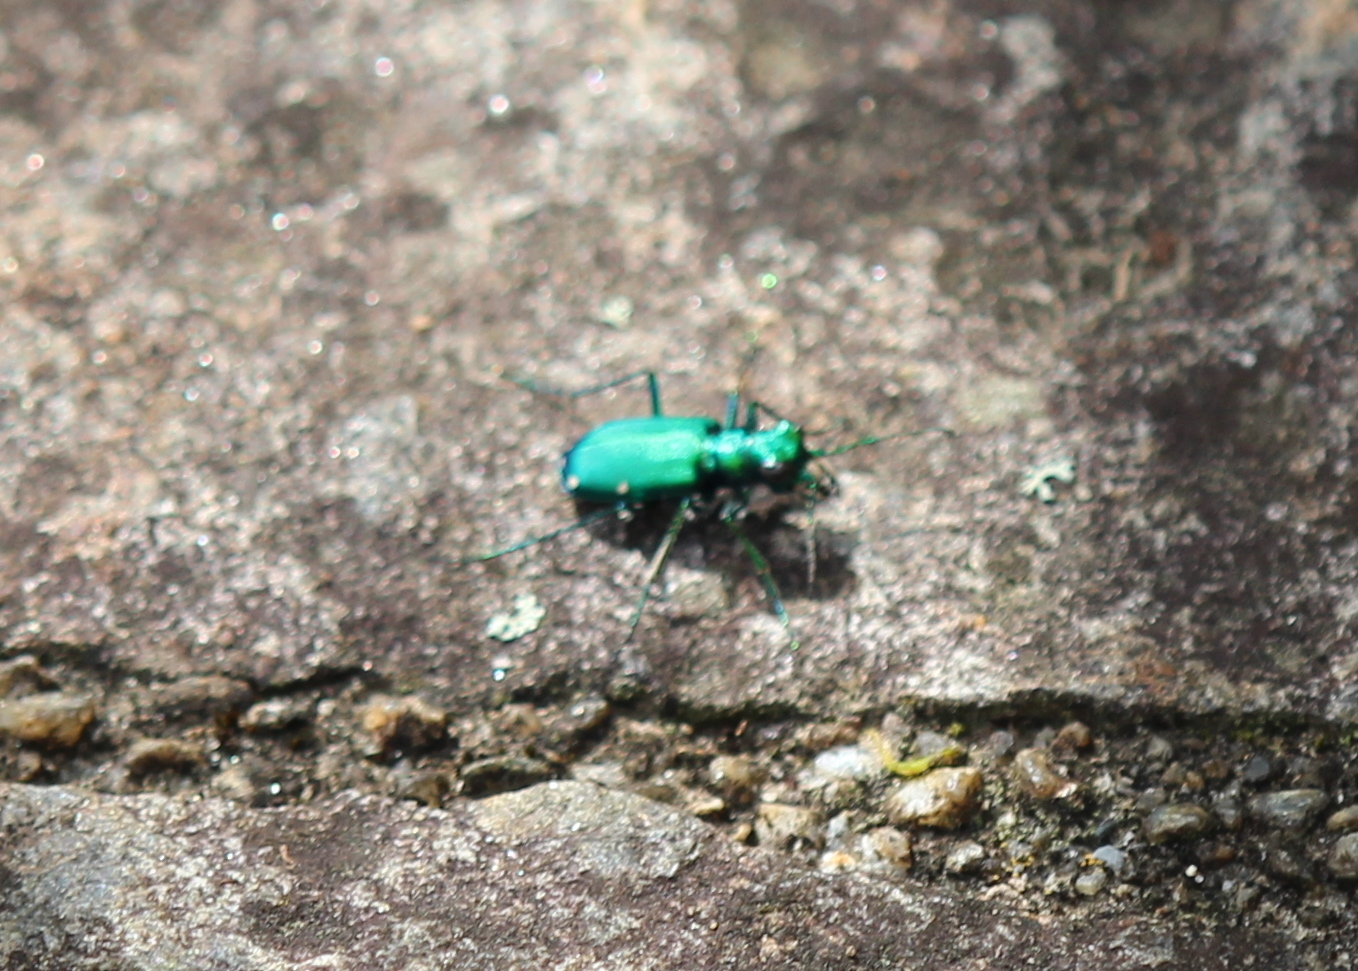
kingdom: Animalia
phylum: Arthropoda
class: Insecta
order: Coleoptera
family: Carabidae
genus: Cicindela
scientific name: Cicindela sexguttata
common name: Six-spotted tiger beetle
